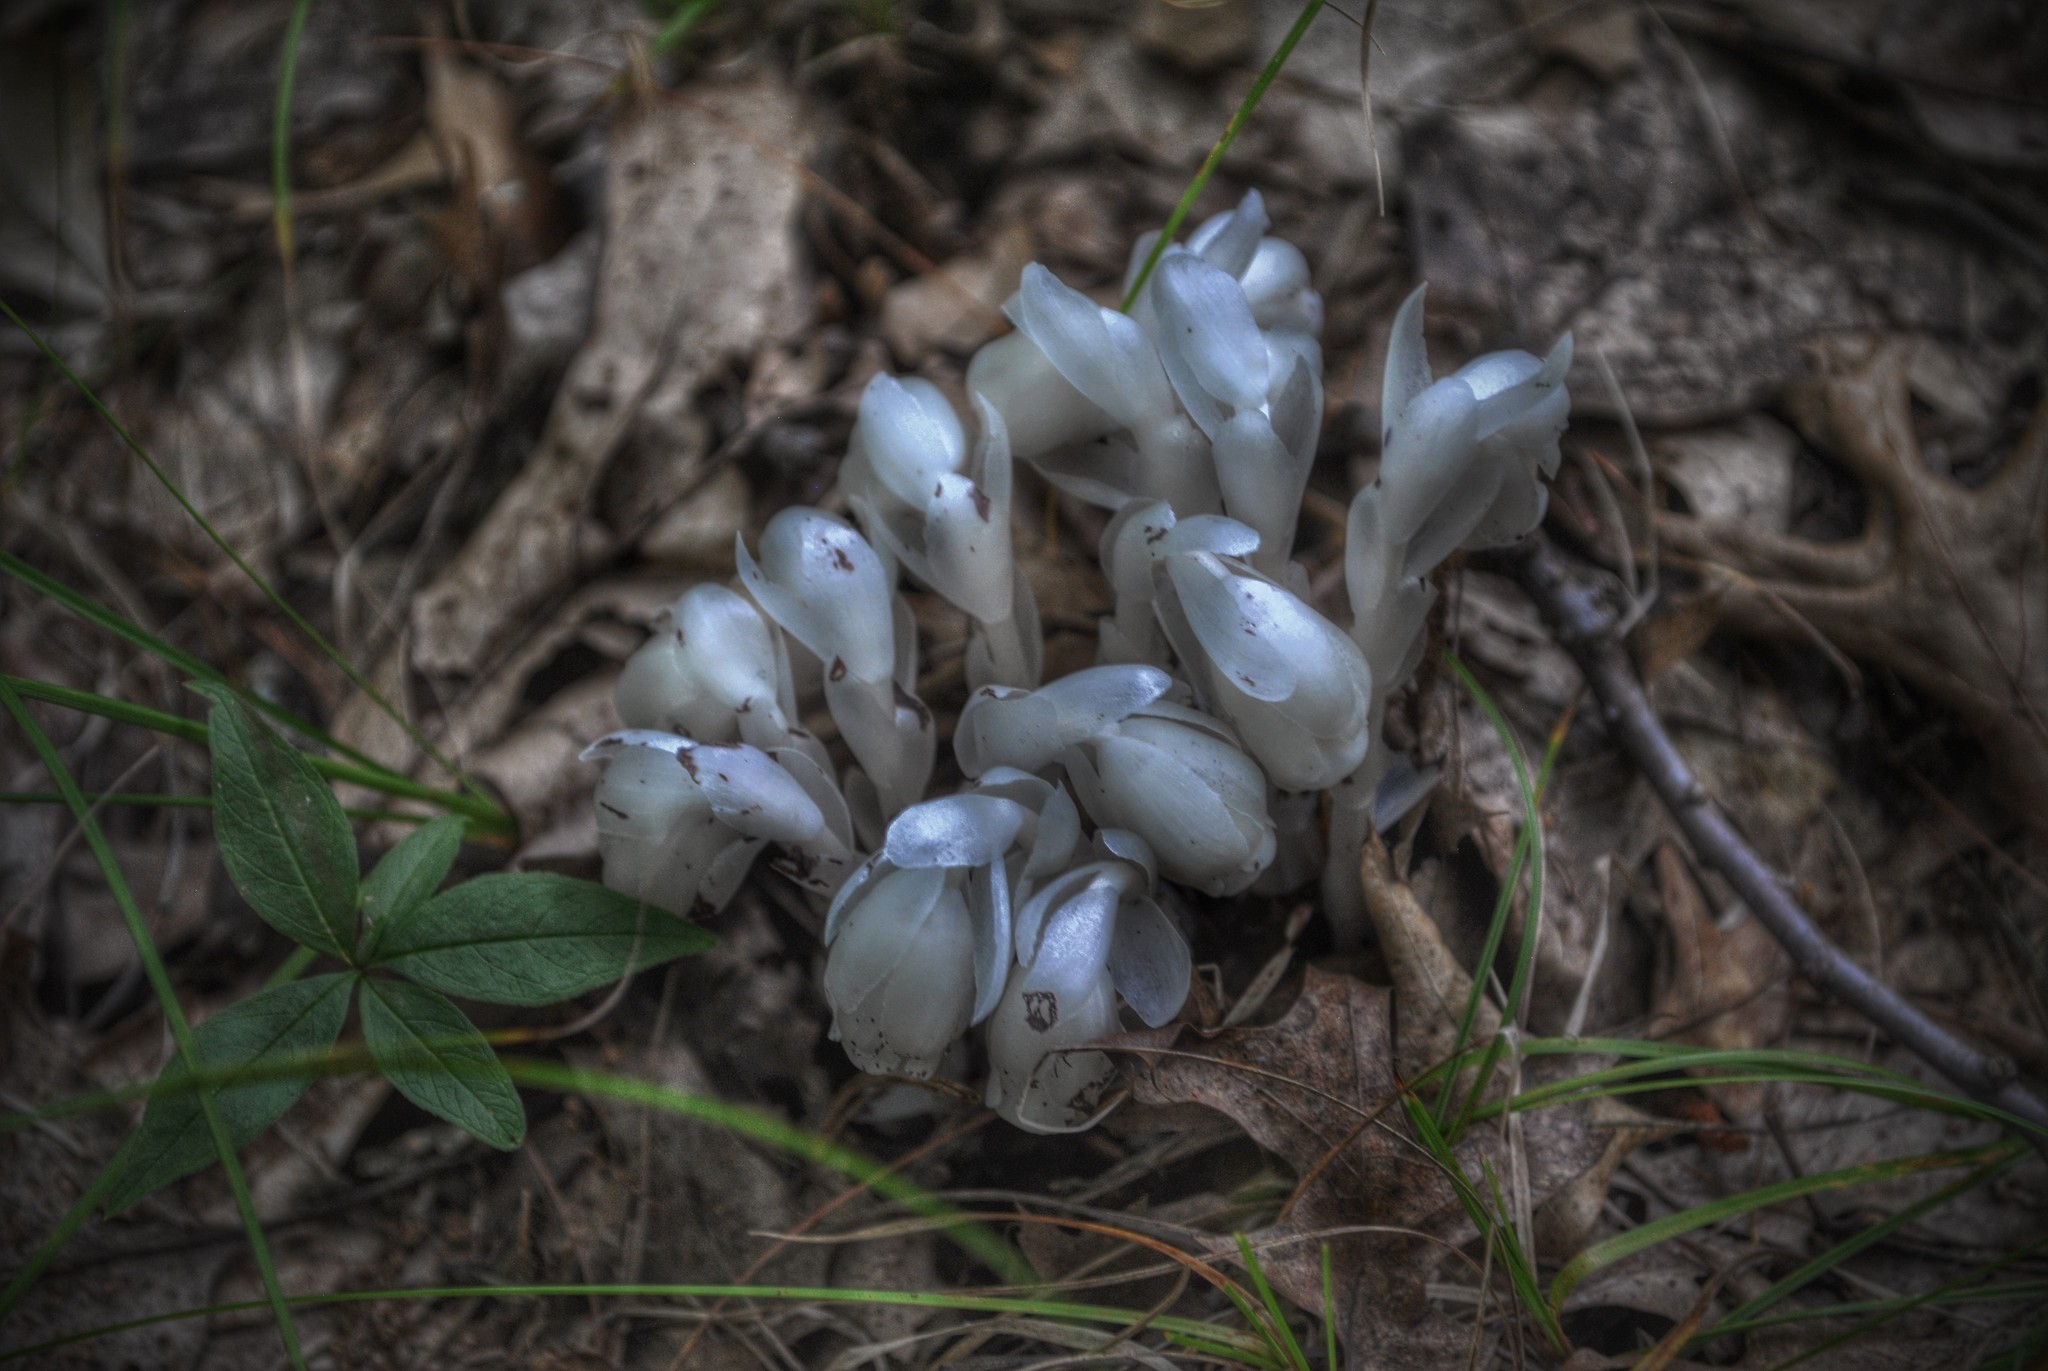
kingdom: Plantae
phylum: Tracheophyta
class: Magnoliopsida
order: Ericales
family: Ericaceae
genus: Monotropa
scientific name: Monotropa uniflora
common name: Convulsion root
